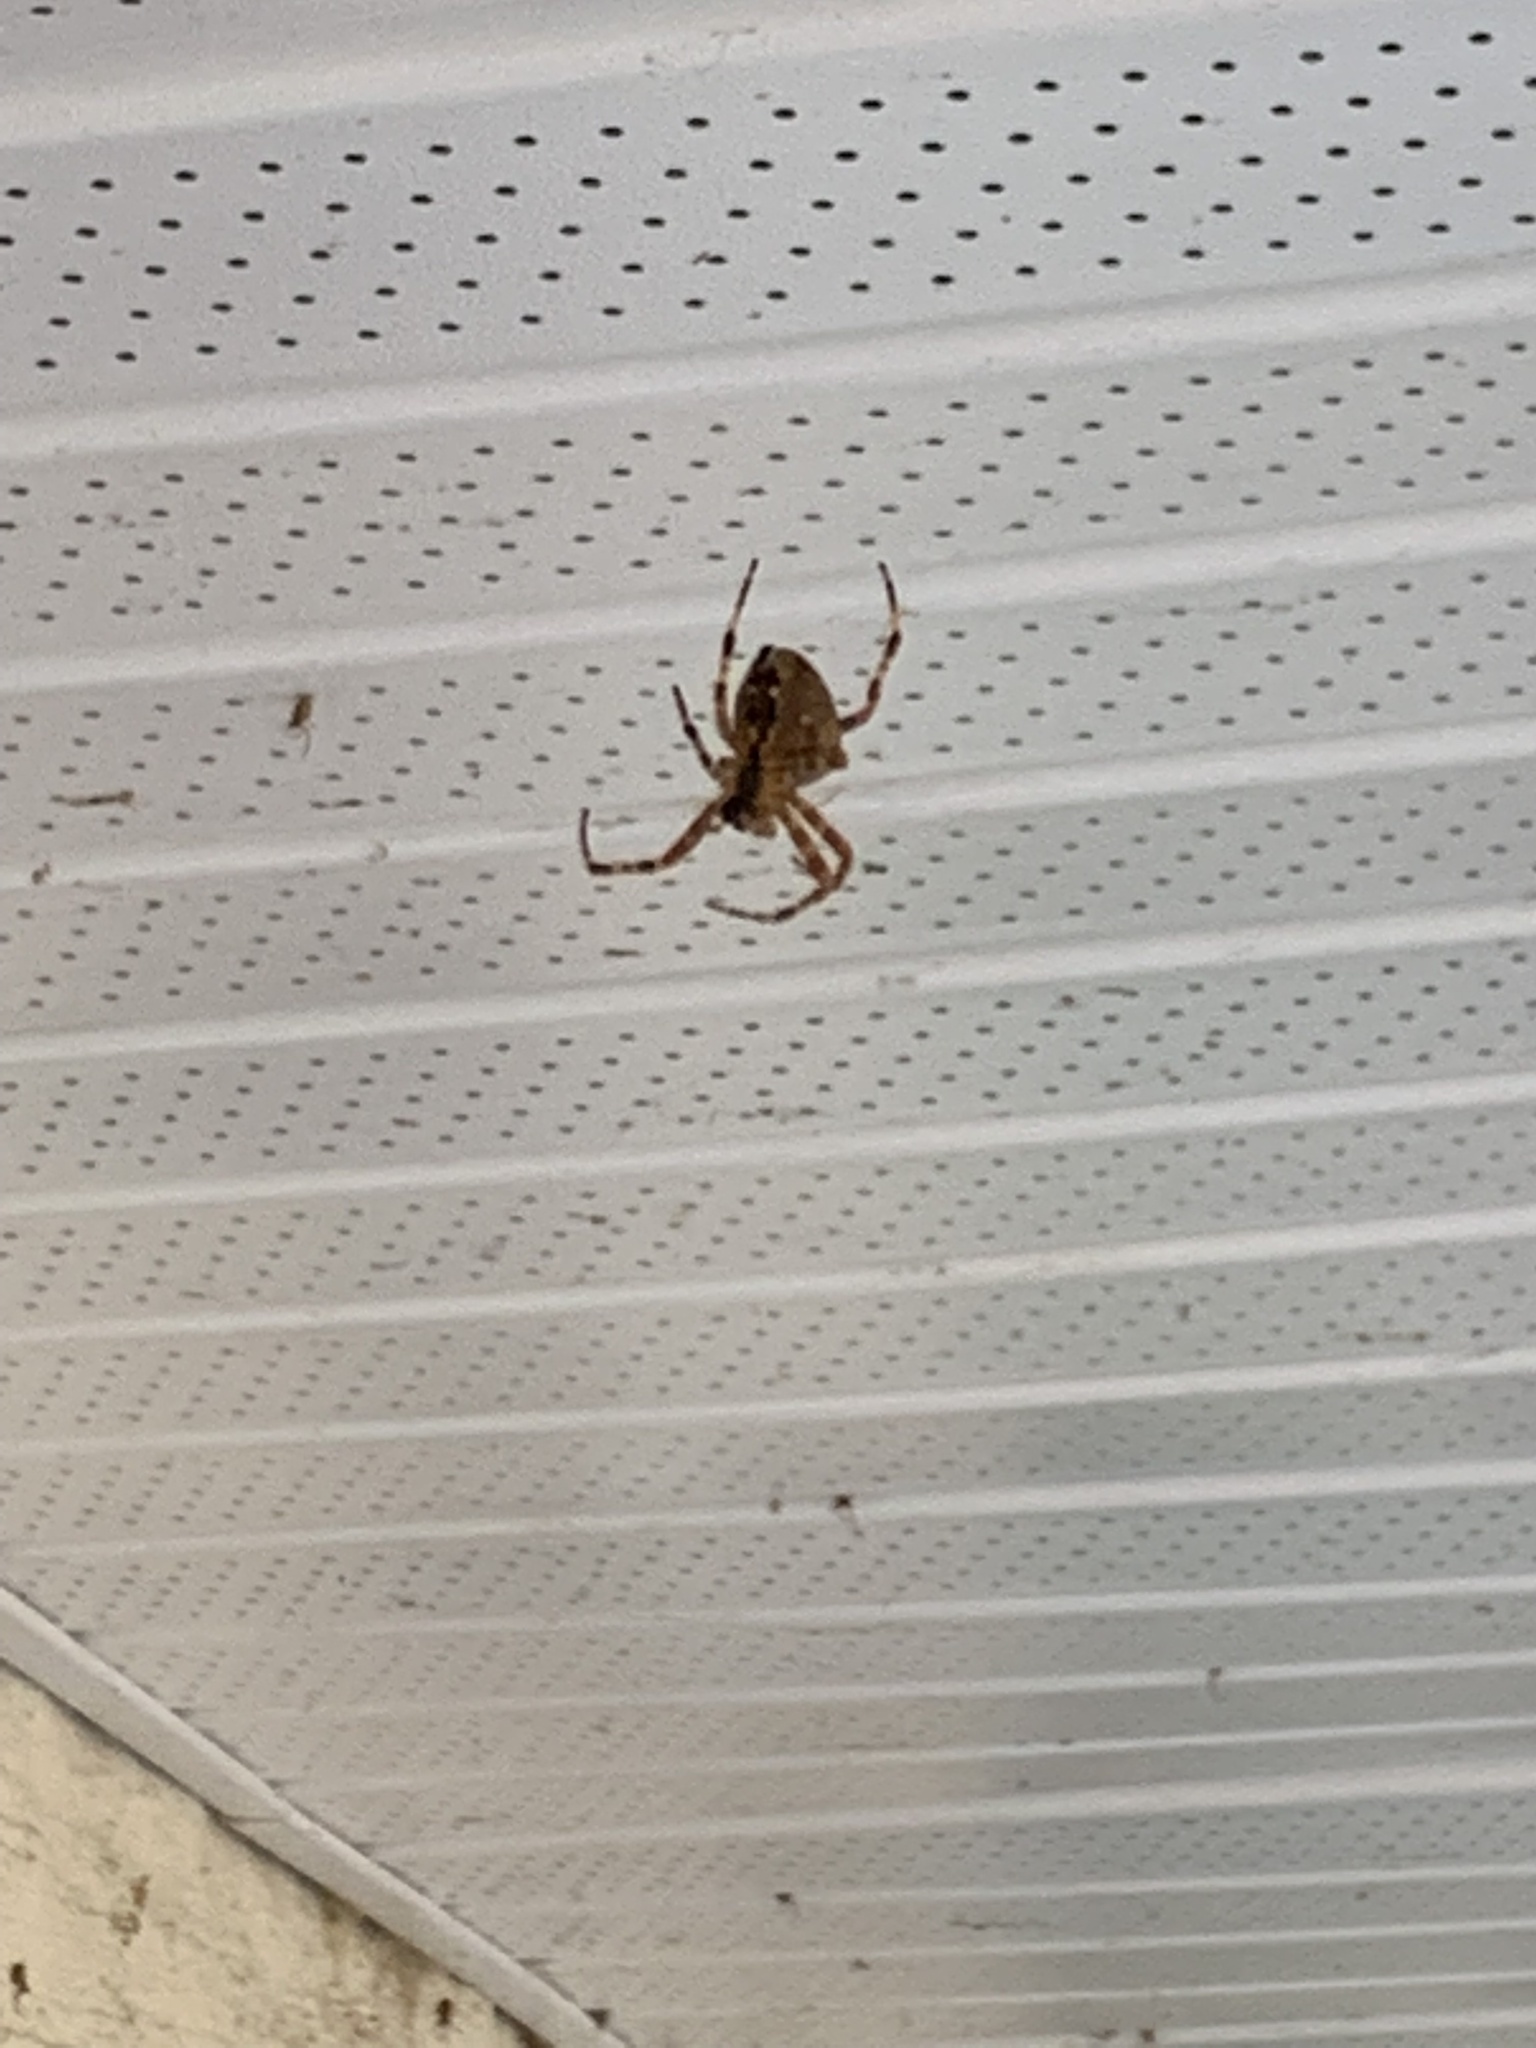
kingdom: Animalia
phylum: Arthropoda
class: Arachnida
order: Araneae
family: Araneidae
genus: Araneus
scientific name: Araneus diadematus
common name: Cross orbweaver
